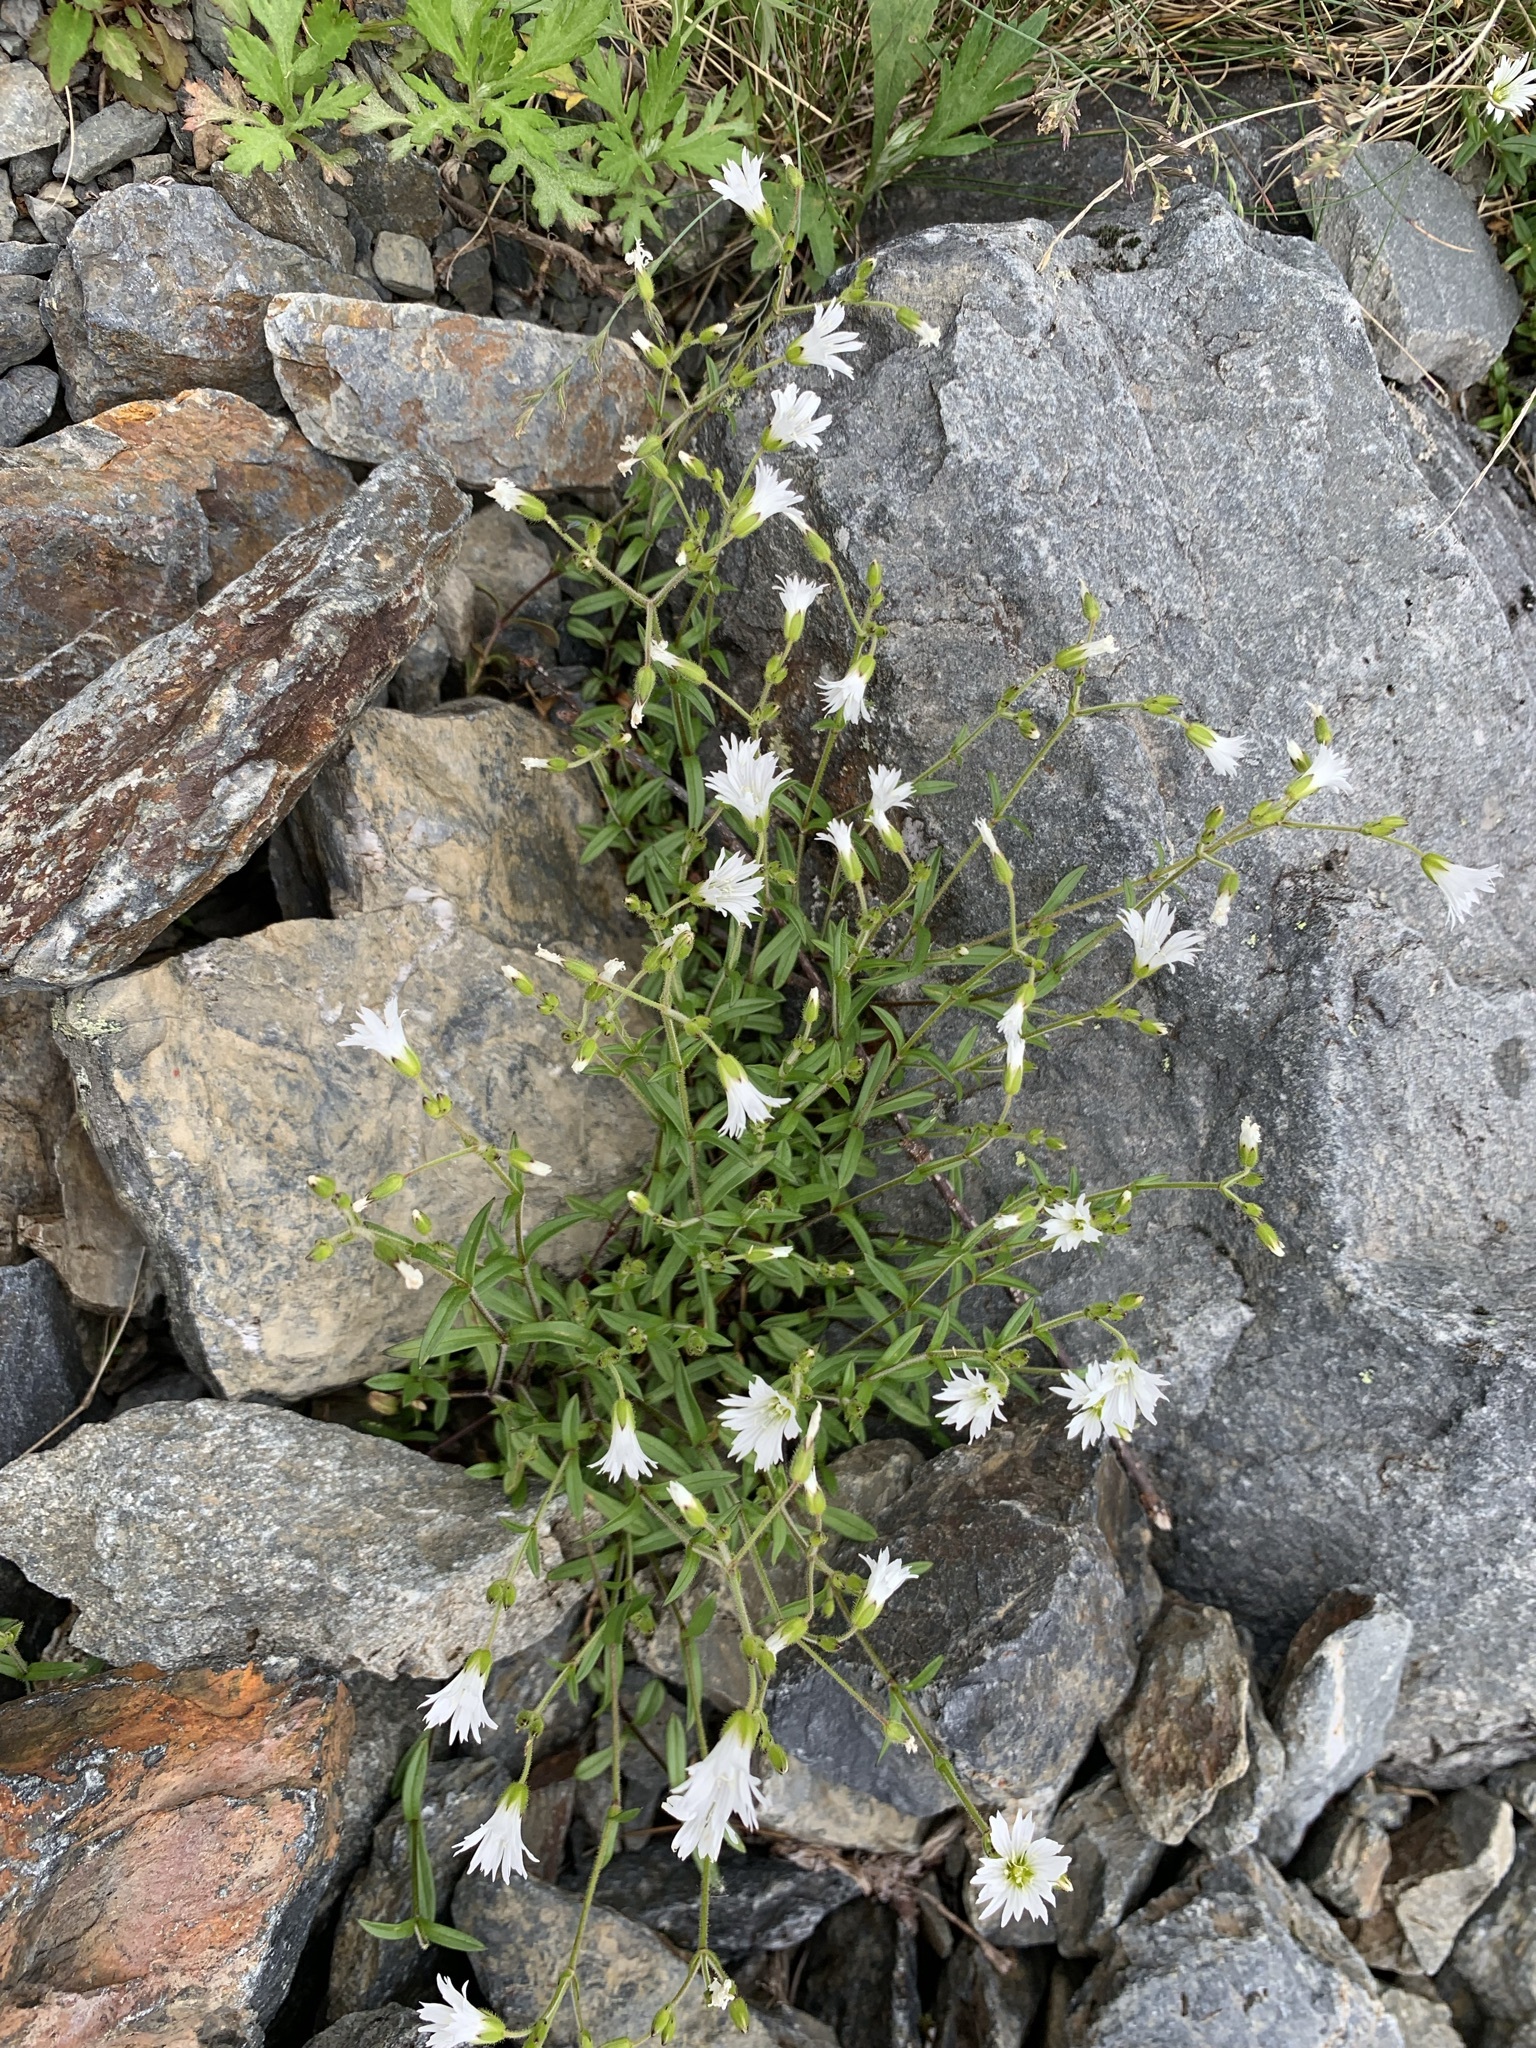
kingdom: Plantae
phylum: Tracheophyta
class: Magnoliopsida
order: Caryophyllales
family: Caryophyllaceae
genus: Cerastium
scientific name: Cerastium schizopetalum
